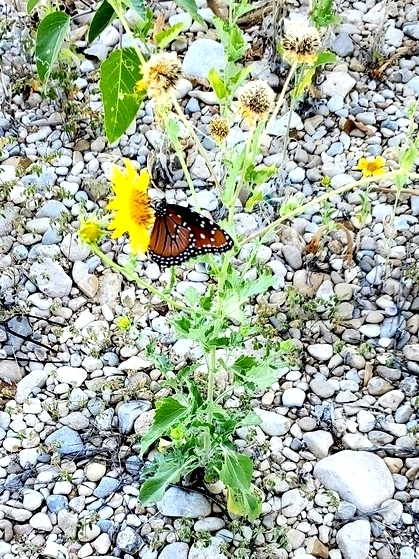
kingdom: Animalia
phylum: Arthropoda
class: Insecta
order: Lepidoptera
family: Nymphalidae
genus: Danaus
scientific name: Danaus gilippus
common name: Queen
